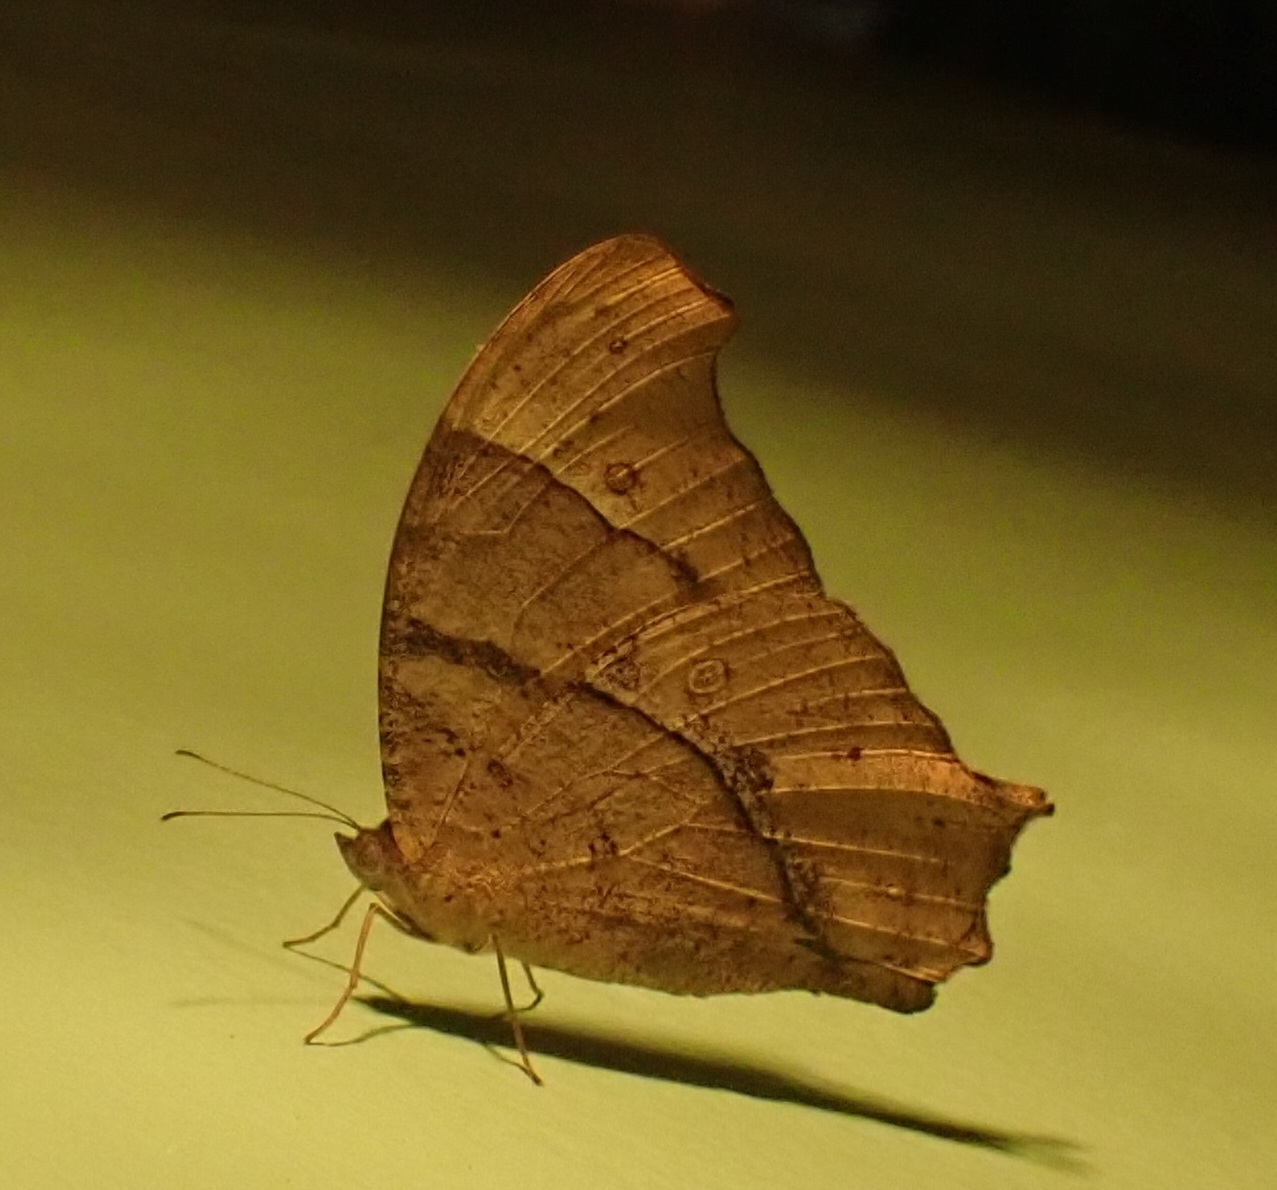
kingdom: Animalia
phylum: Arthropoda
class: Insecta
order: Lepidoptera
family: Nymphalidae
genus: Melanitis
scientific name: Melanitis leda
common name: Twilight brown
